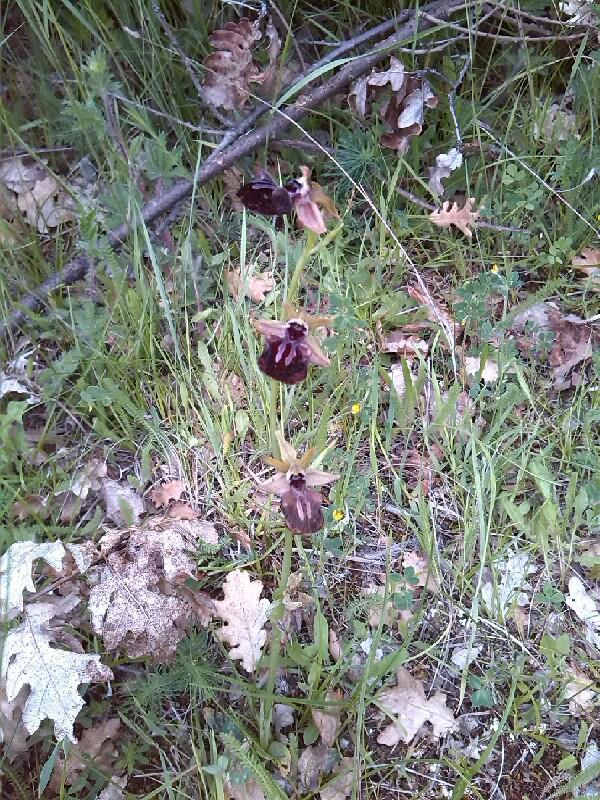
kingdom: Plantae
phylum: Tracheophyta
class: Liliopsida
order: Asparagales
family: Orchidaceae
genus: Ophrys
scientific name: Ophrys sphegodes
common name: Early spider-orchid
